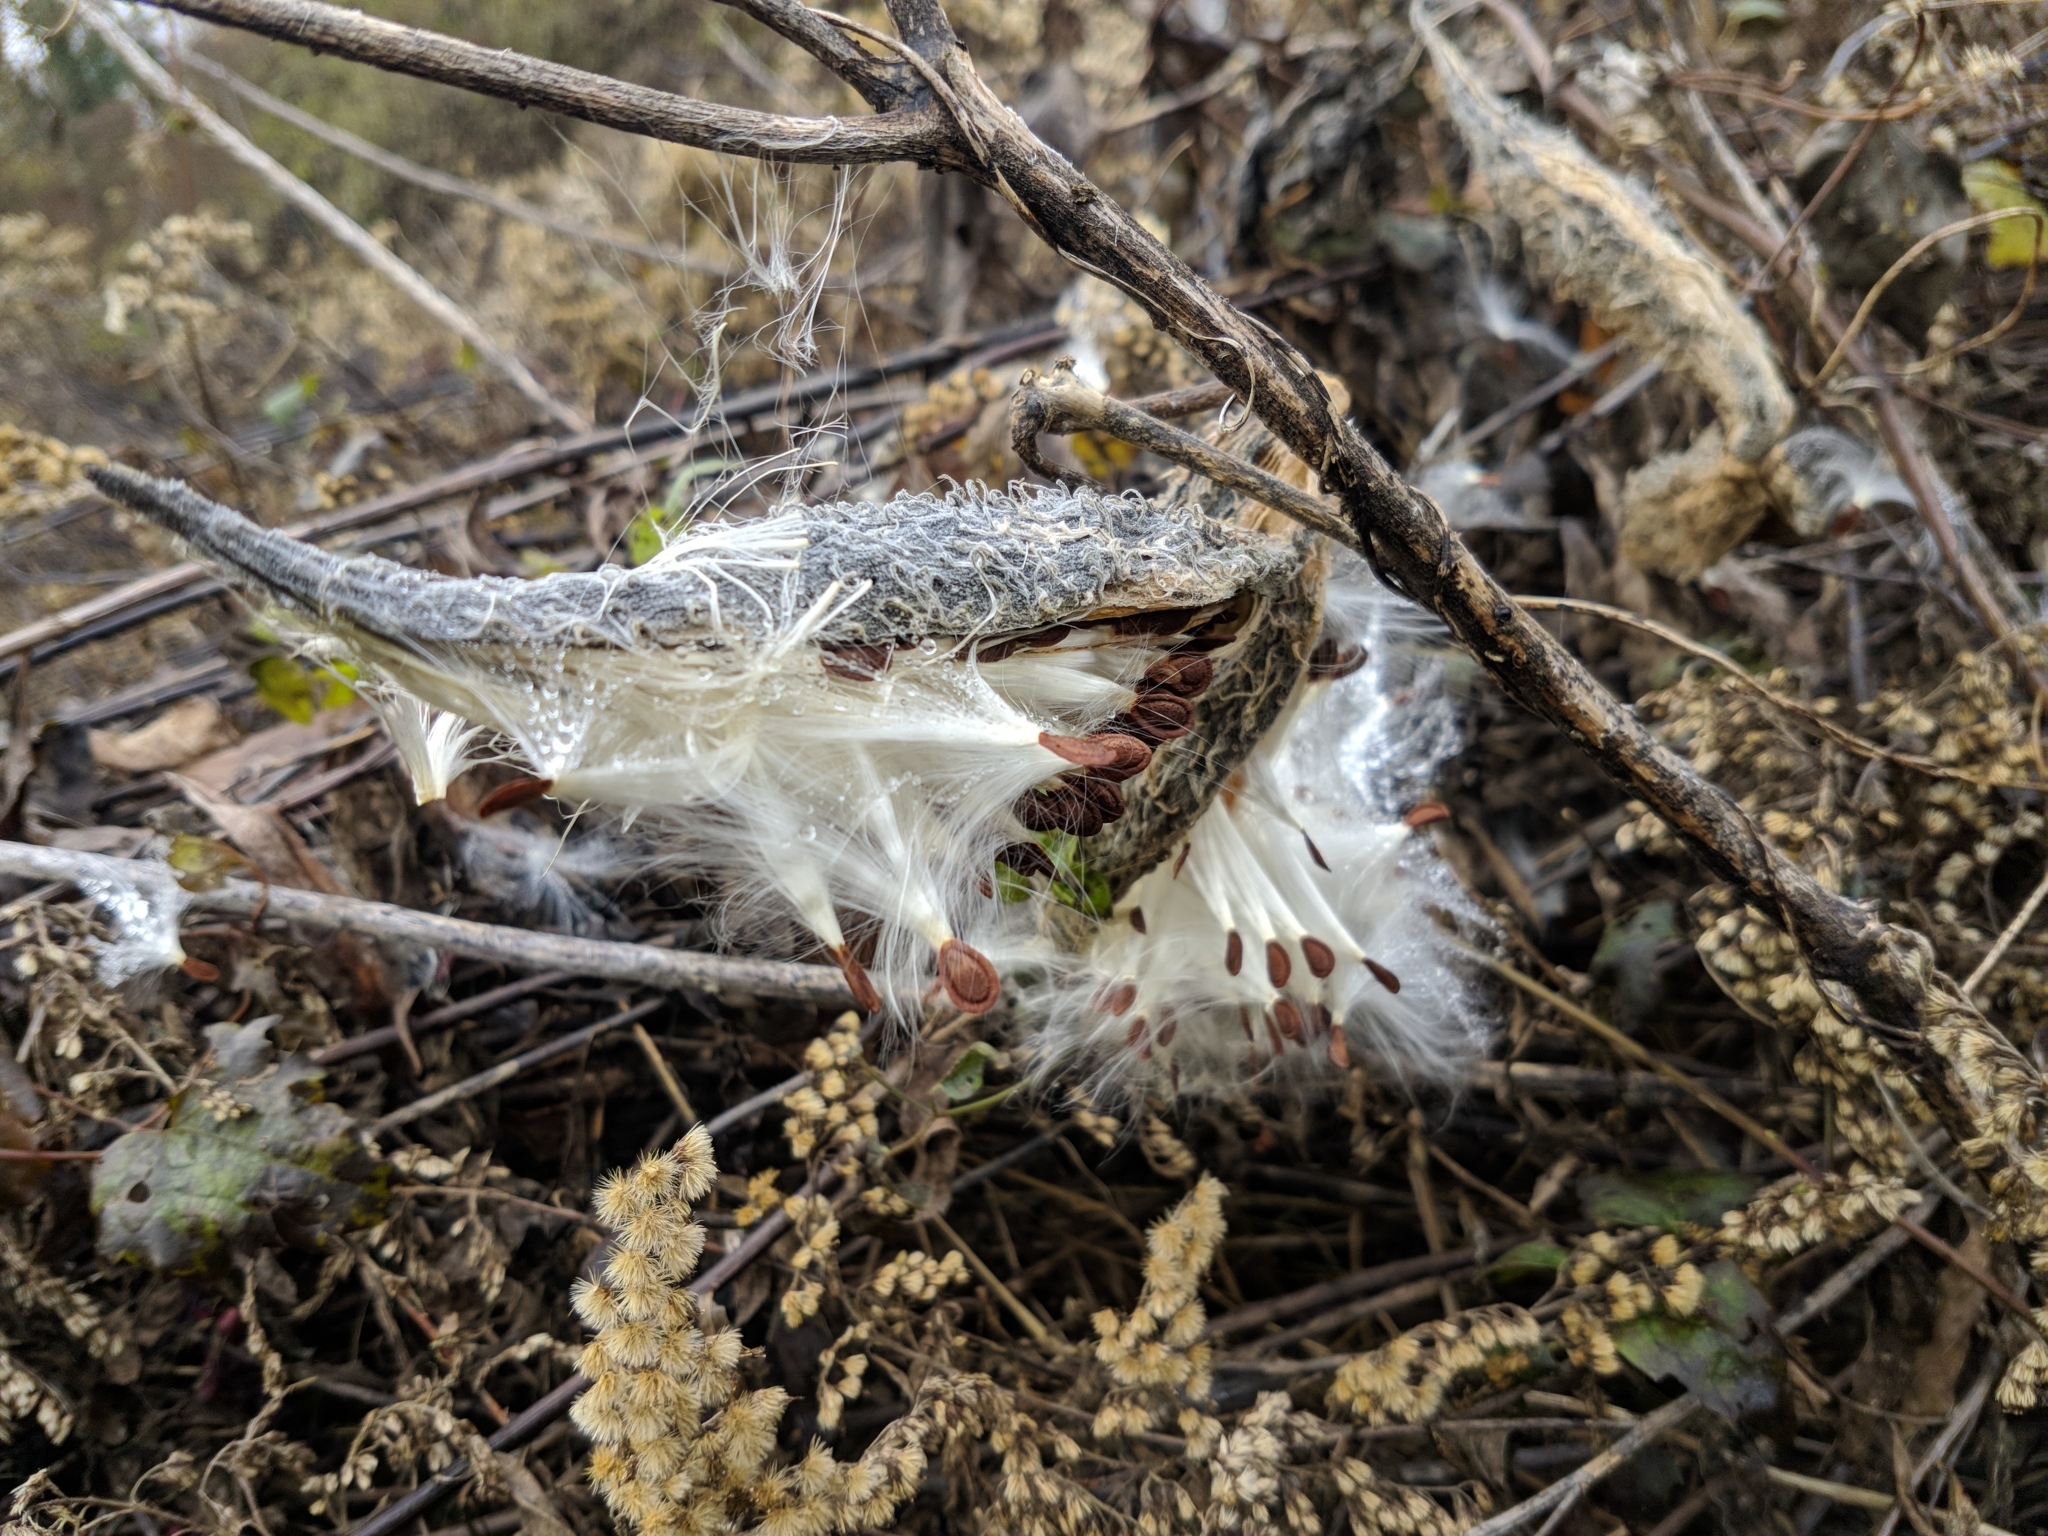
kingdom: Plantae
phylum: Tracheophyta
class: Magnoliopsida
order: Gentianales
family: Apocynaceae
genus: Asclepias
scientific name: Asclepias syriaca
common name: Common milkweed
